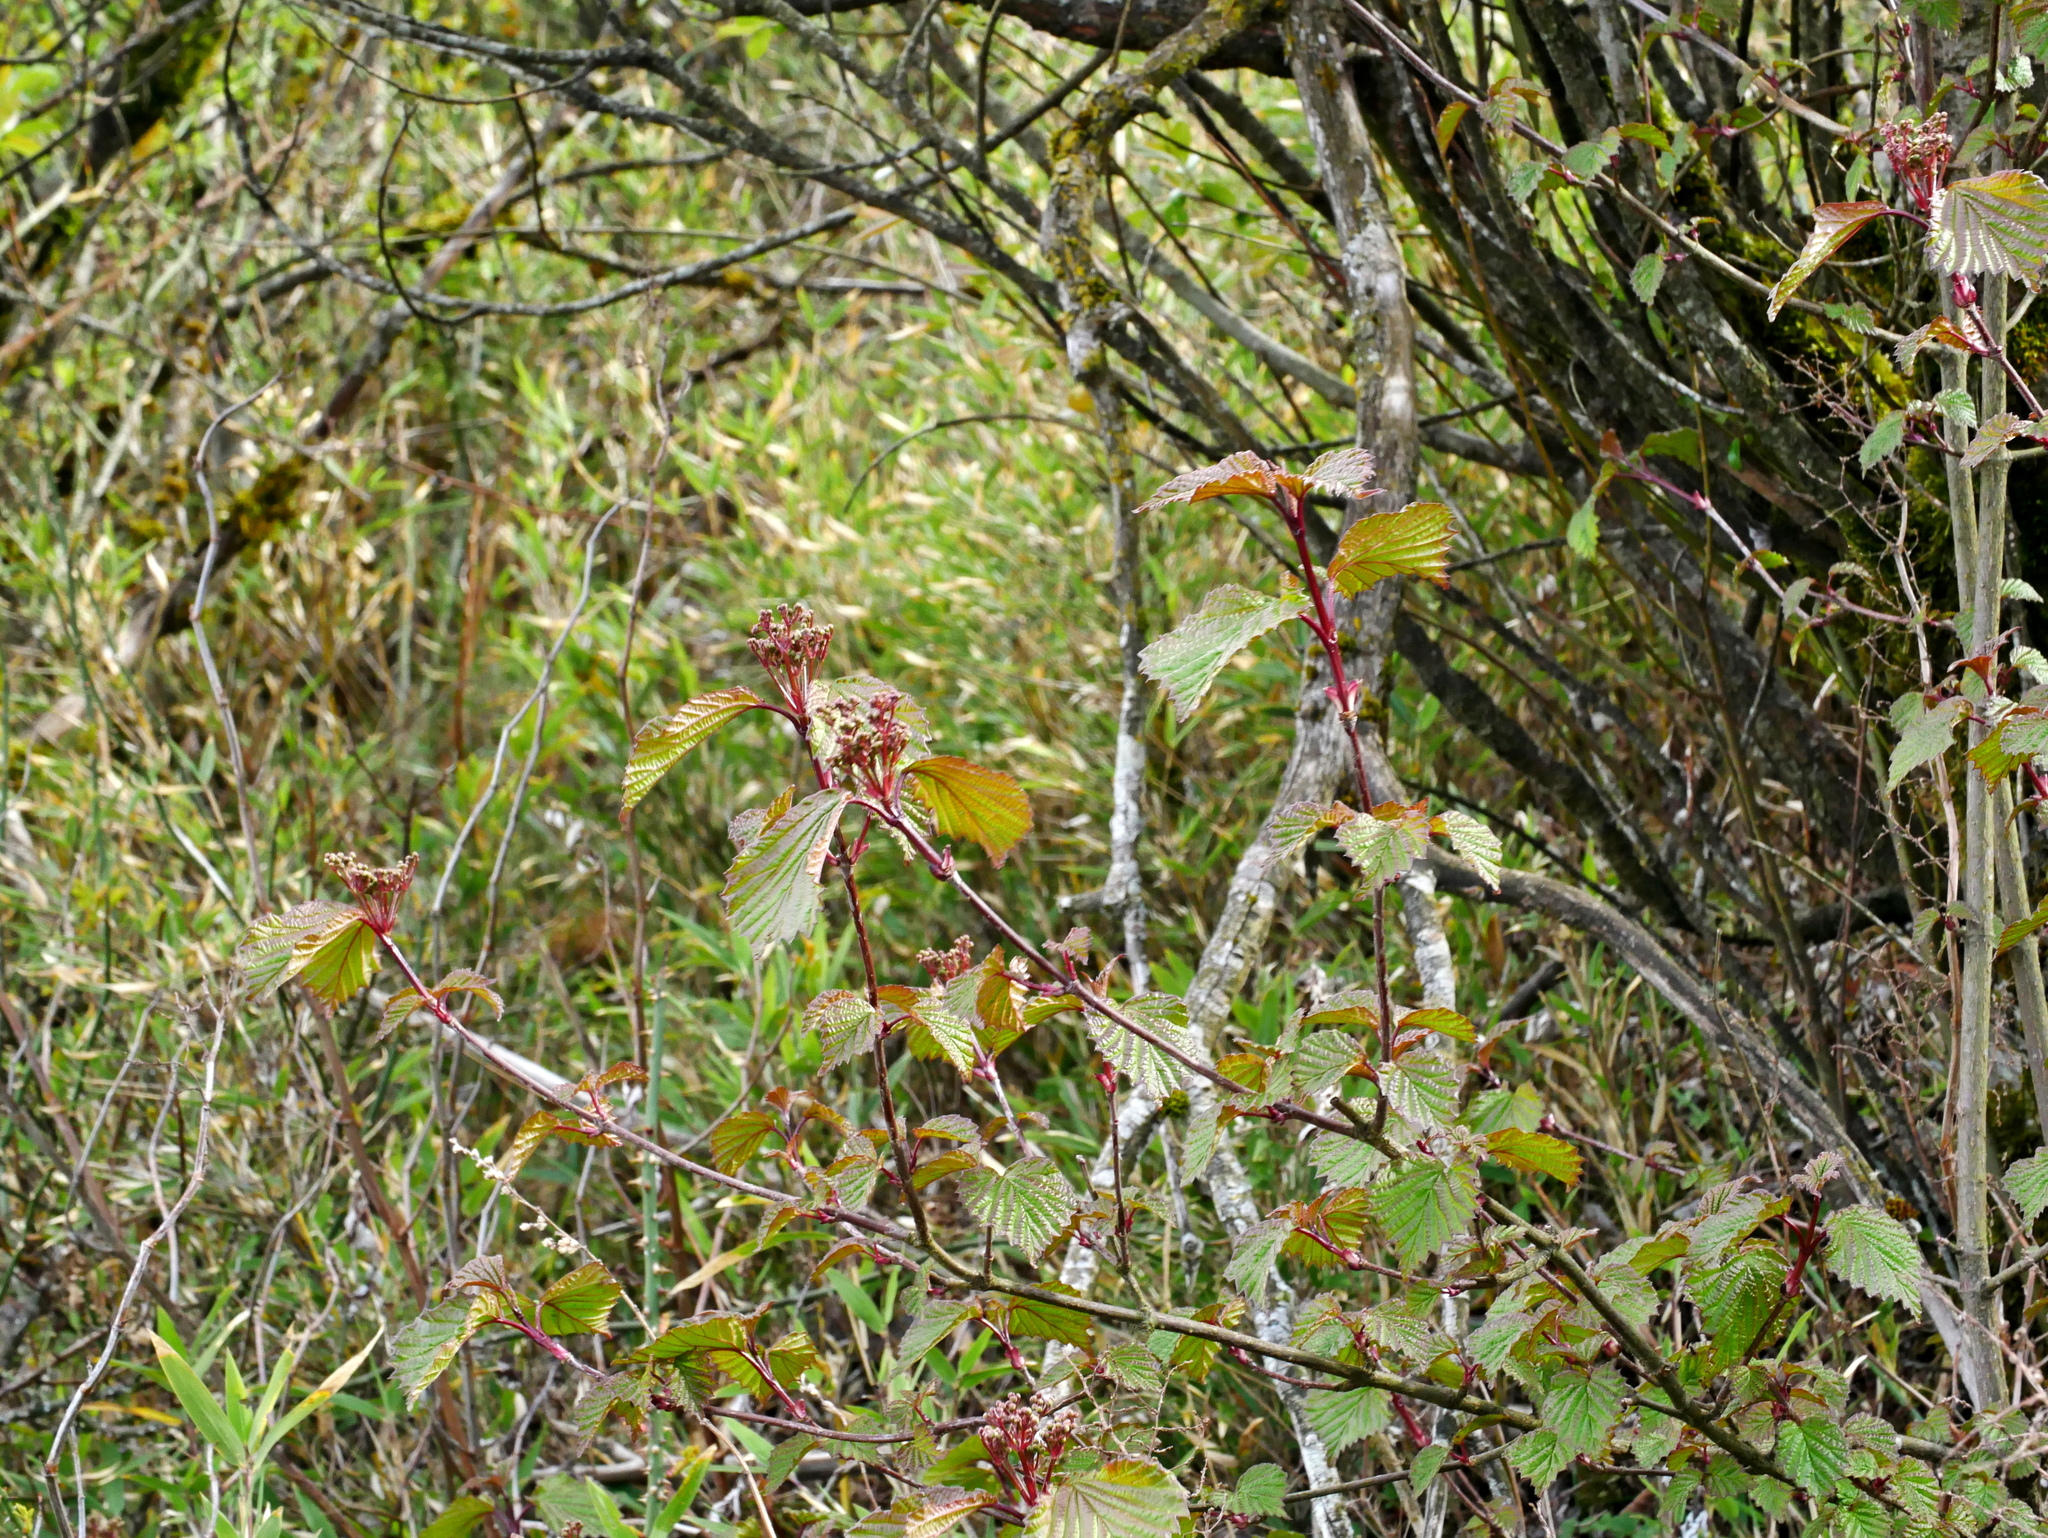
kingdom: Plantae
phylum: Tracheophyta
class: Magnoliopsida
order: Dipsacales
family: Viburnaceae
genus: Viburnum
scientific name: Viburnum betulifolium
